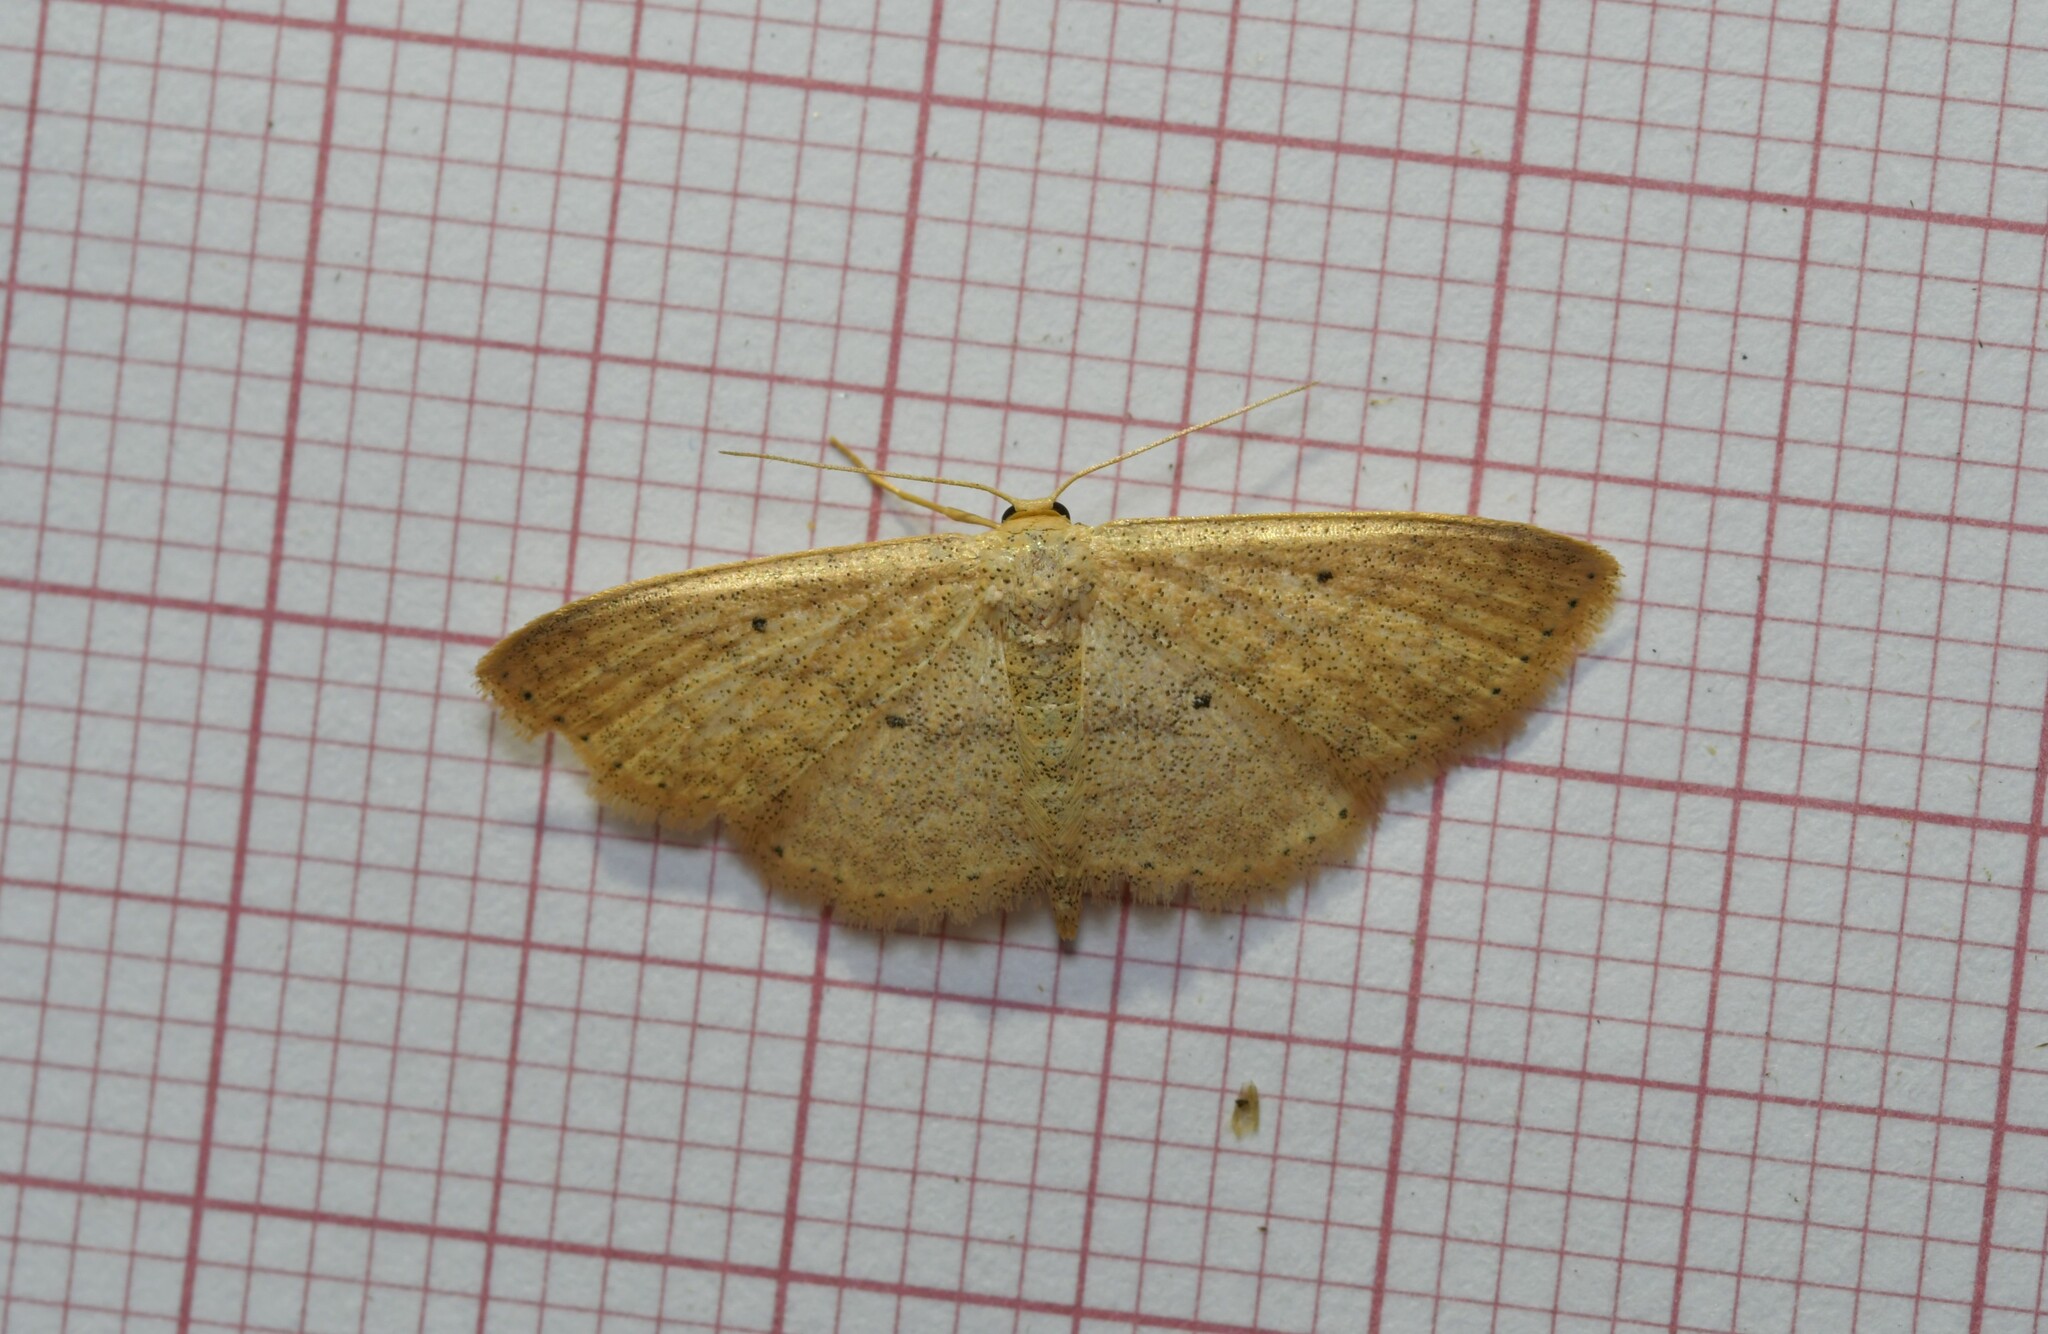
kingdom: Animalia
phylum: Arthropoda
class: Insecta
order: Lepidoptera
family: Geometridae
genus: Scopula
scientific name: Scopula minorata
